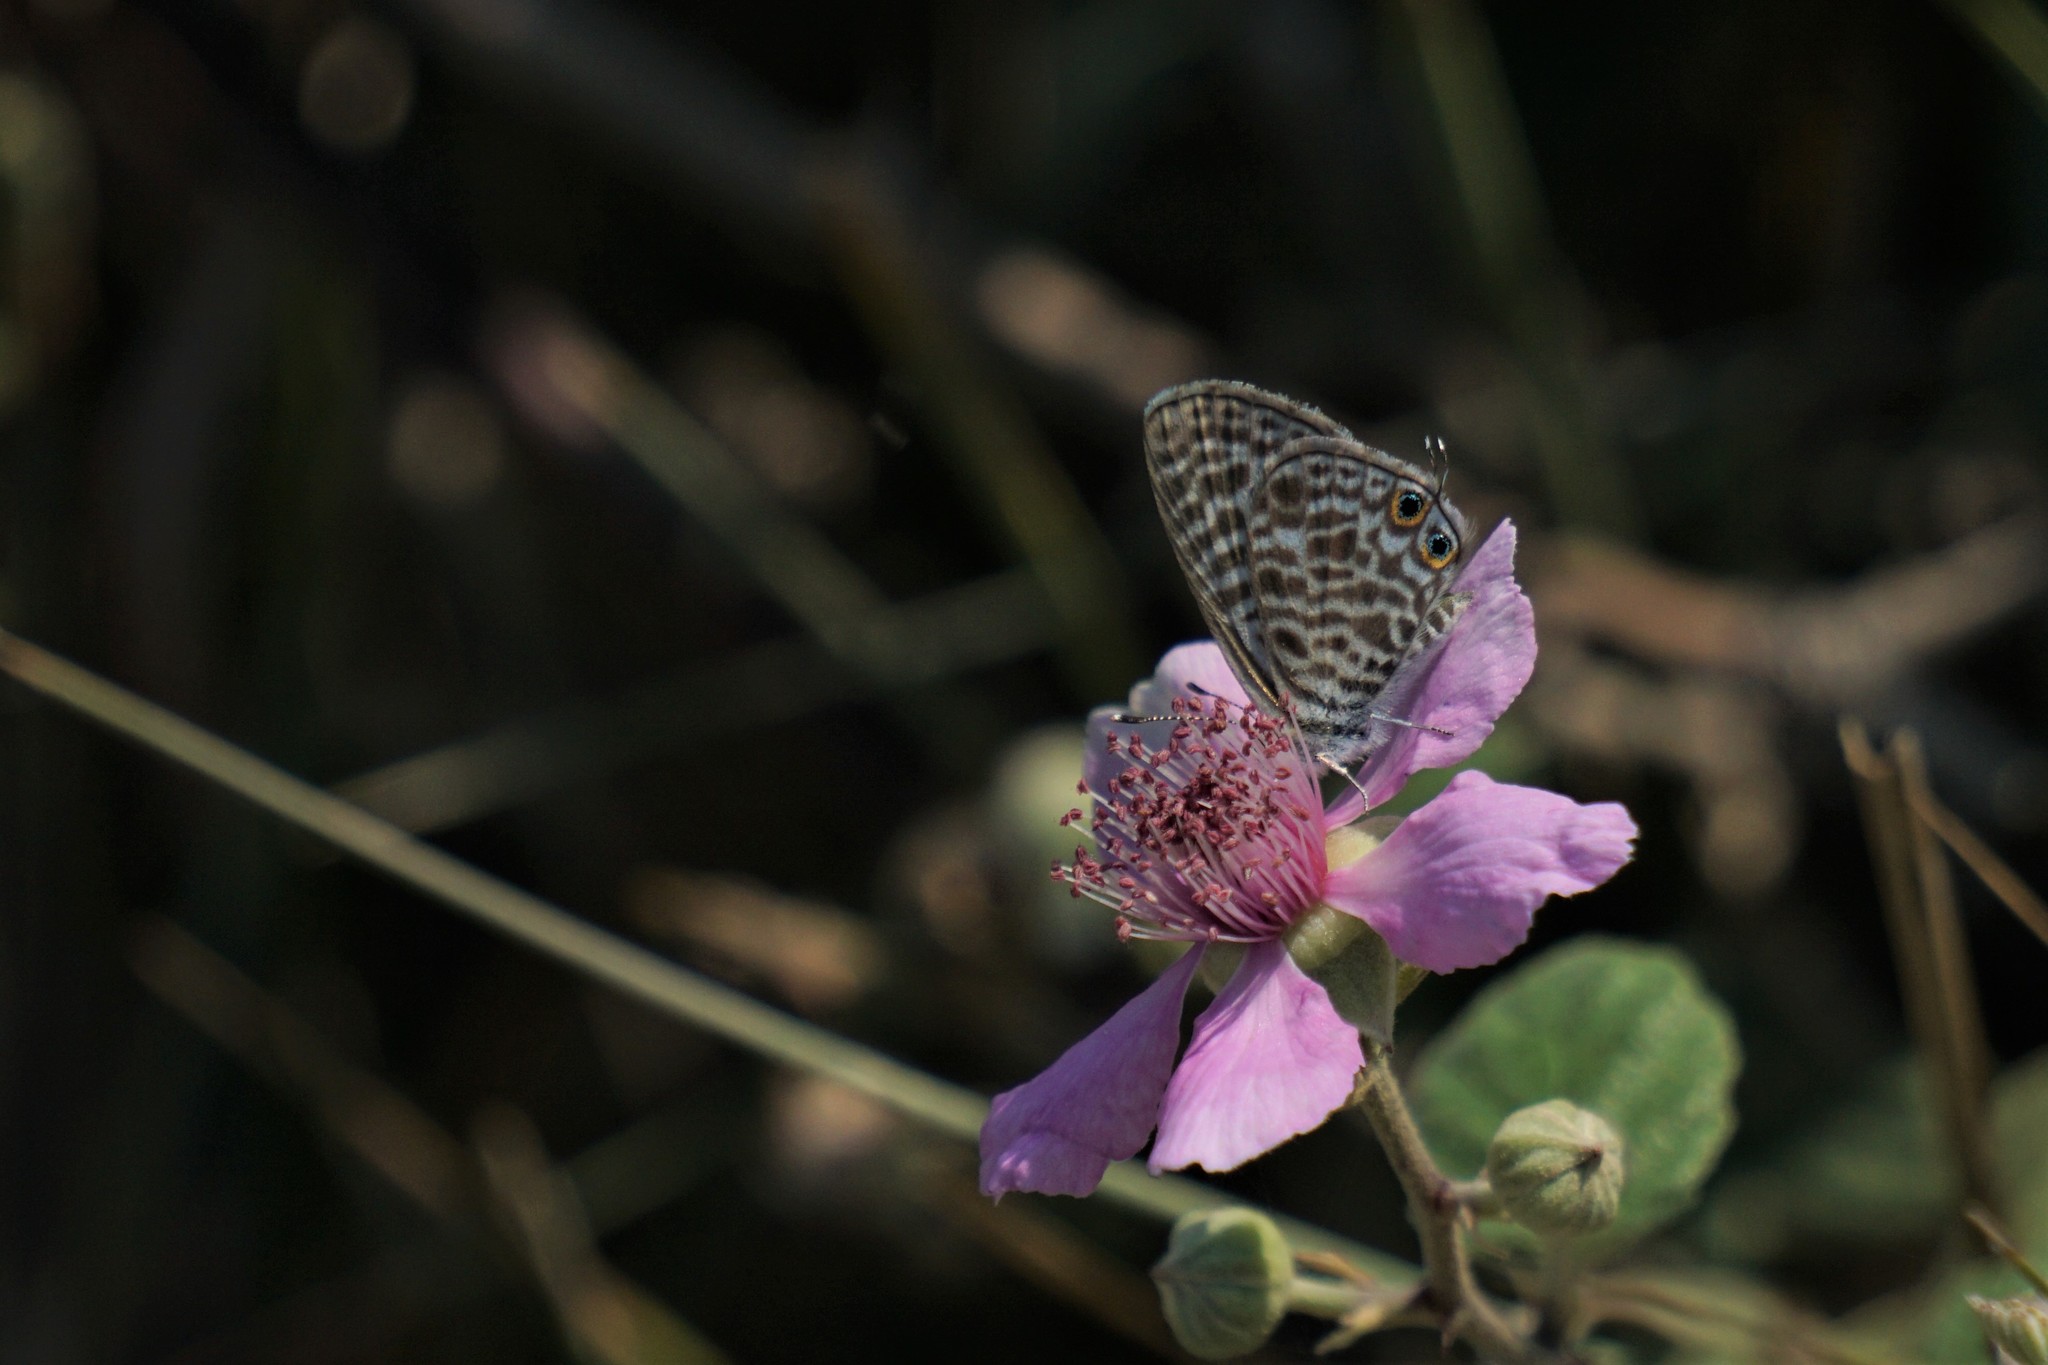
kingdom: Animalia
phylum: Arthropoda
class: Insecta
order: Lepidoptera
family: Lycaenidae
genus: Leptotes
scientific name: Leptotes pirithous
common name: Lang's short-tailed blue
